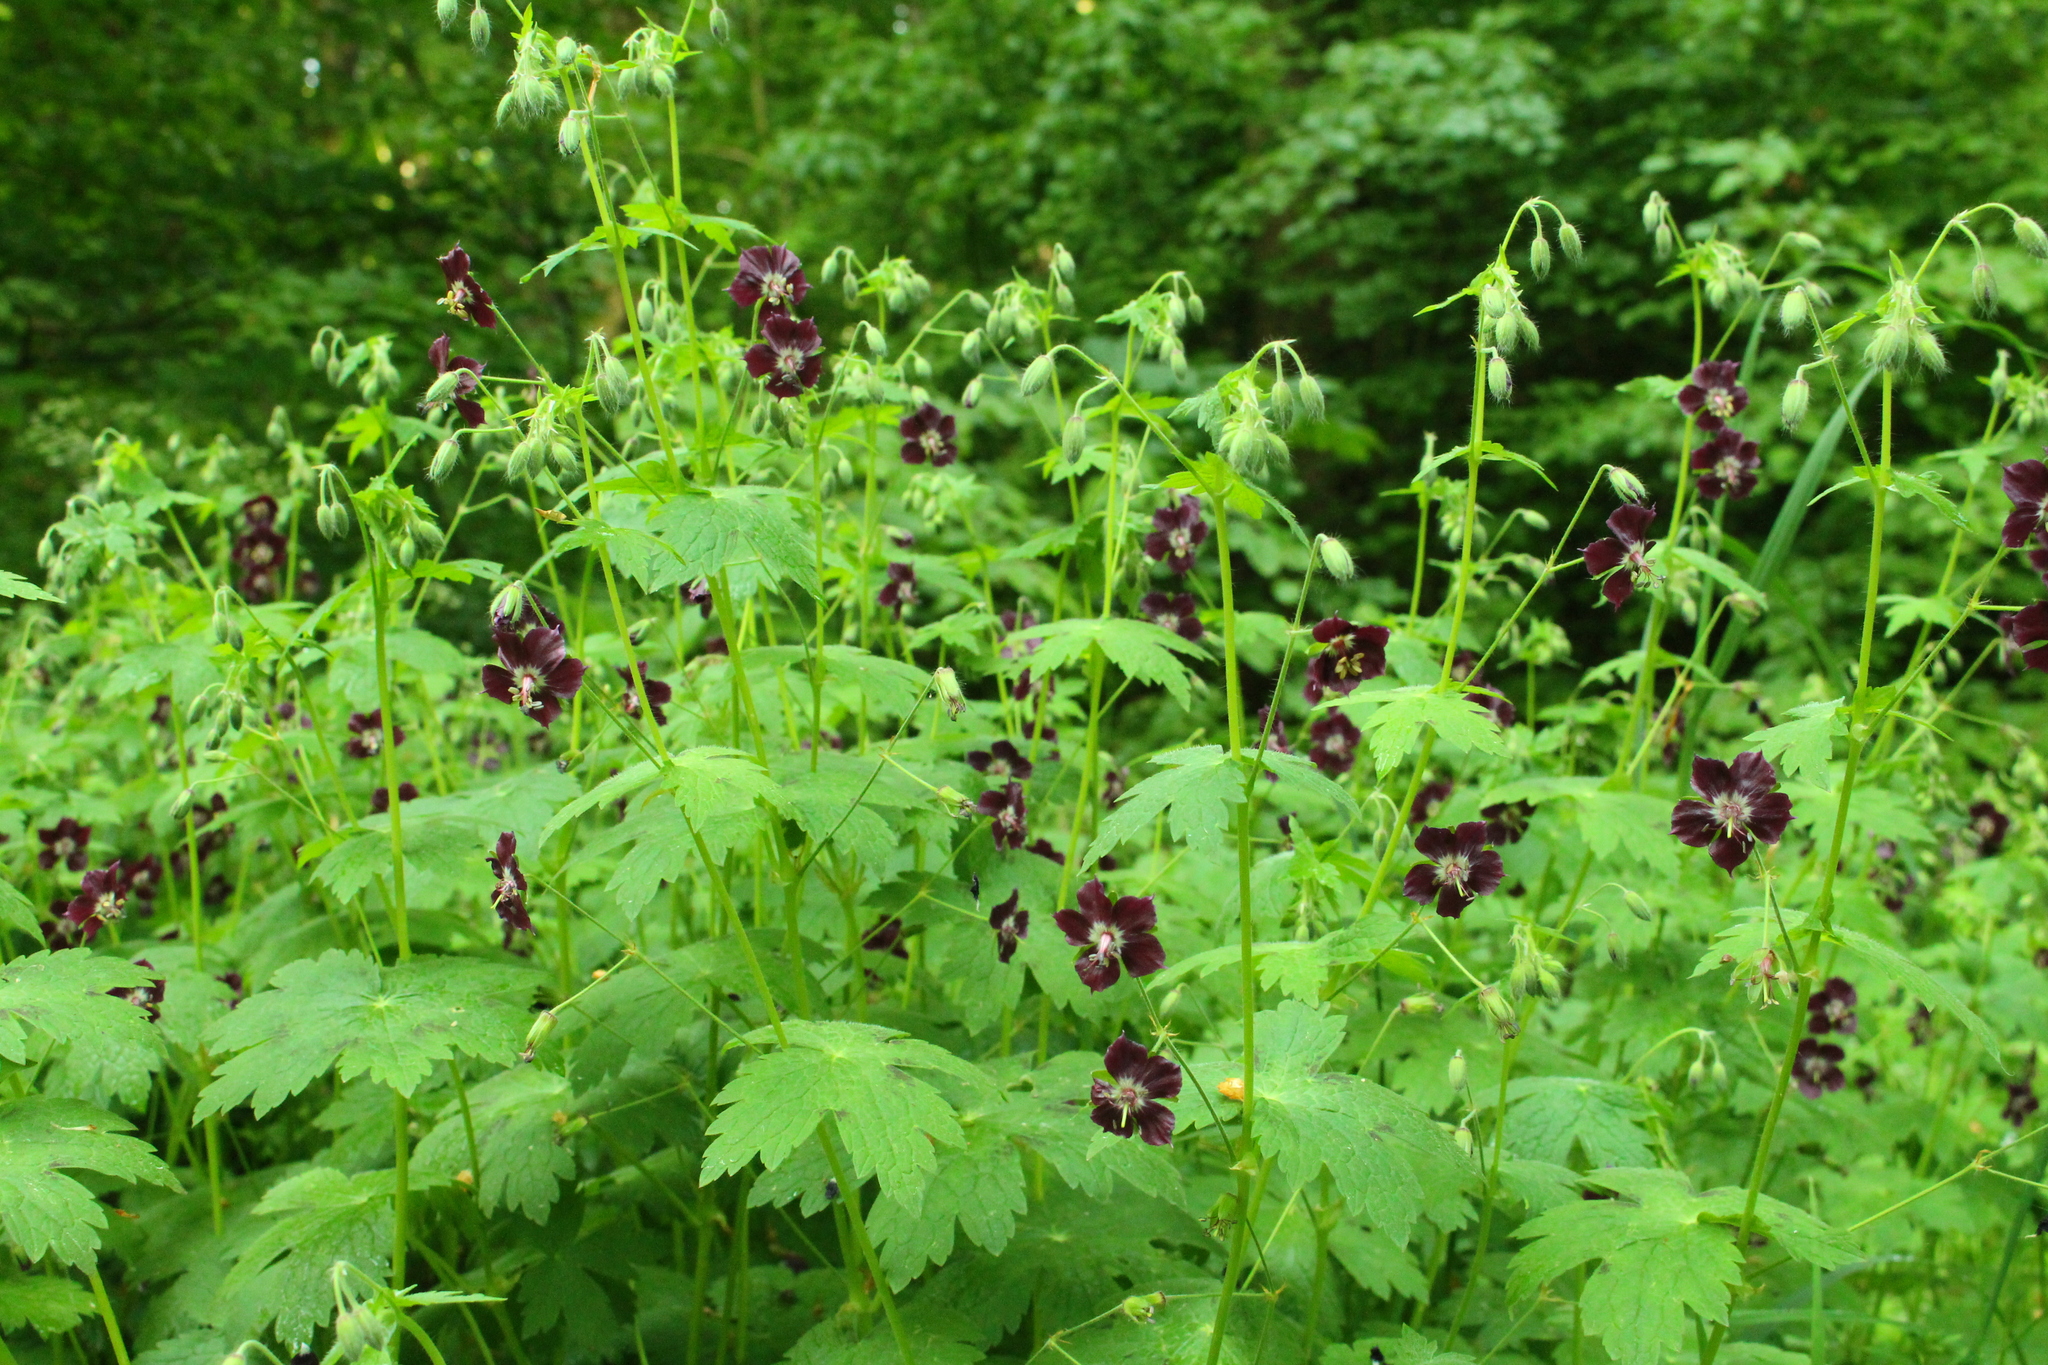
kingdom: Plantae
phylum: Tracheophyta
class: Magnoliopsida
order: Geraniales
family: Geraniaceae
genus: Geranium
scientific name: Geranium phaeum
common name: Dusky crane's-bill
